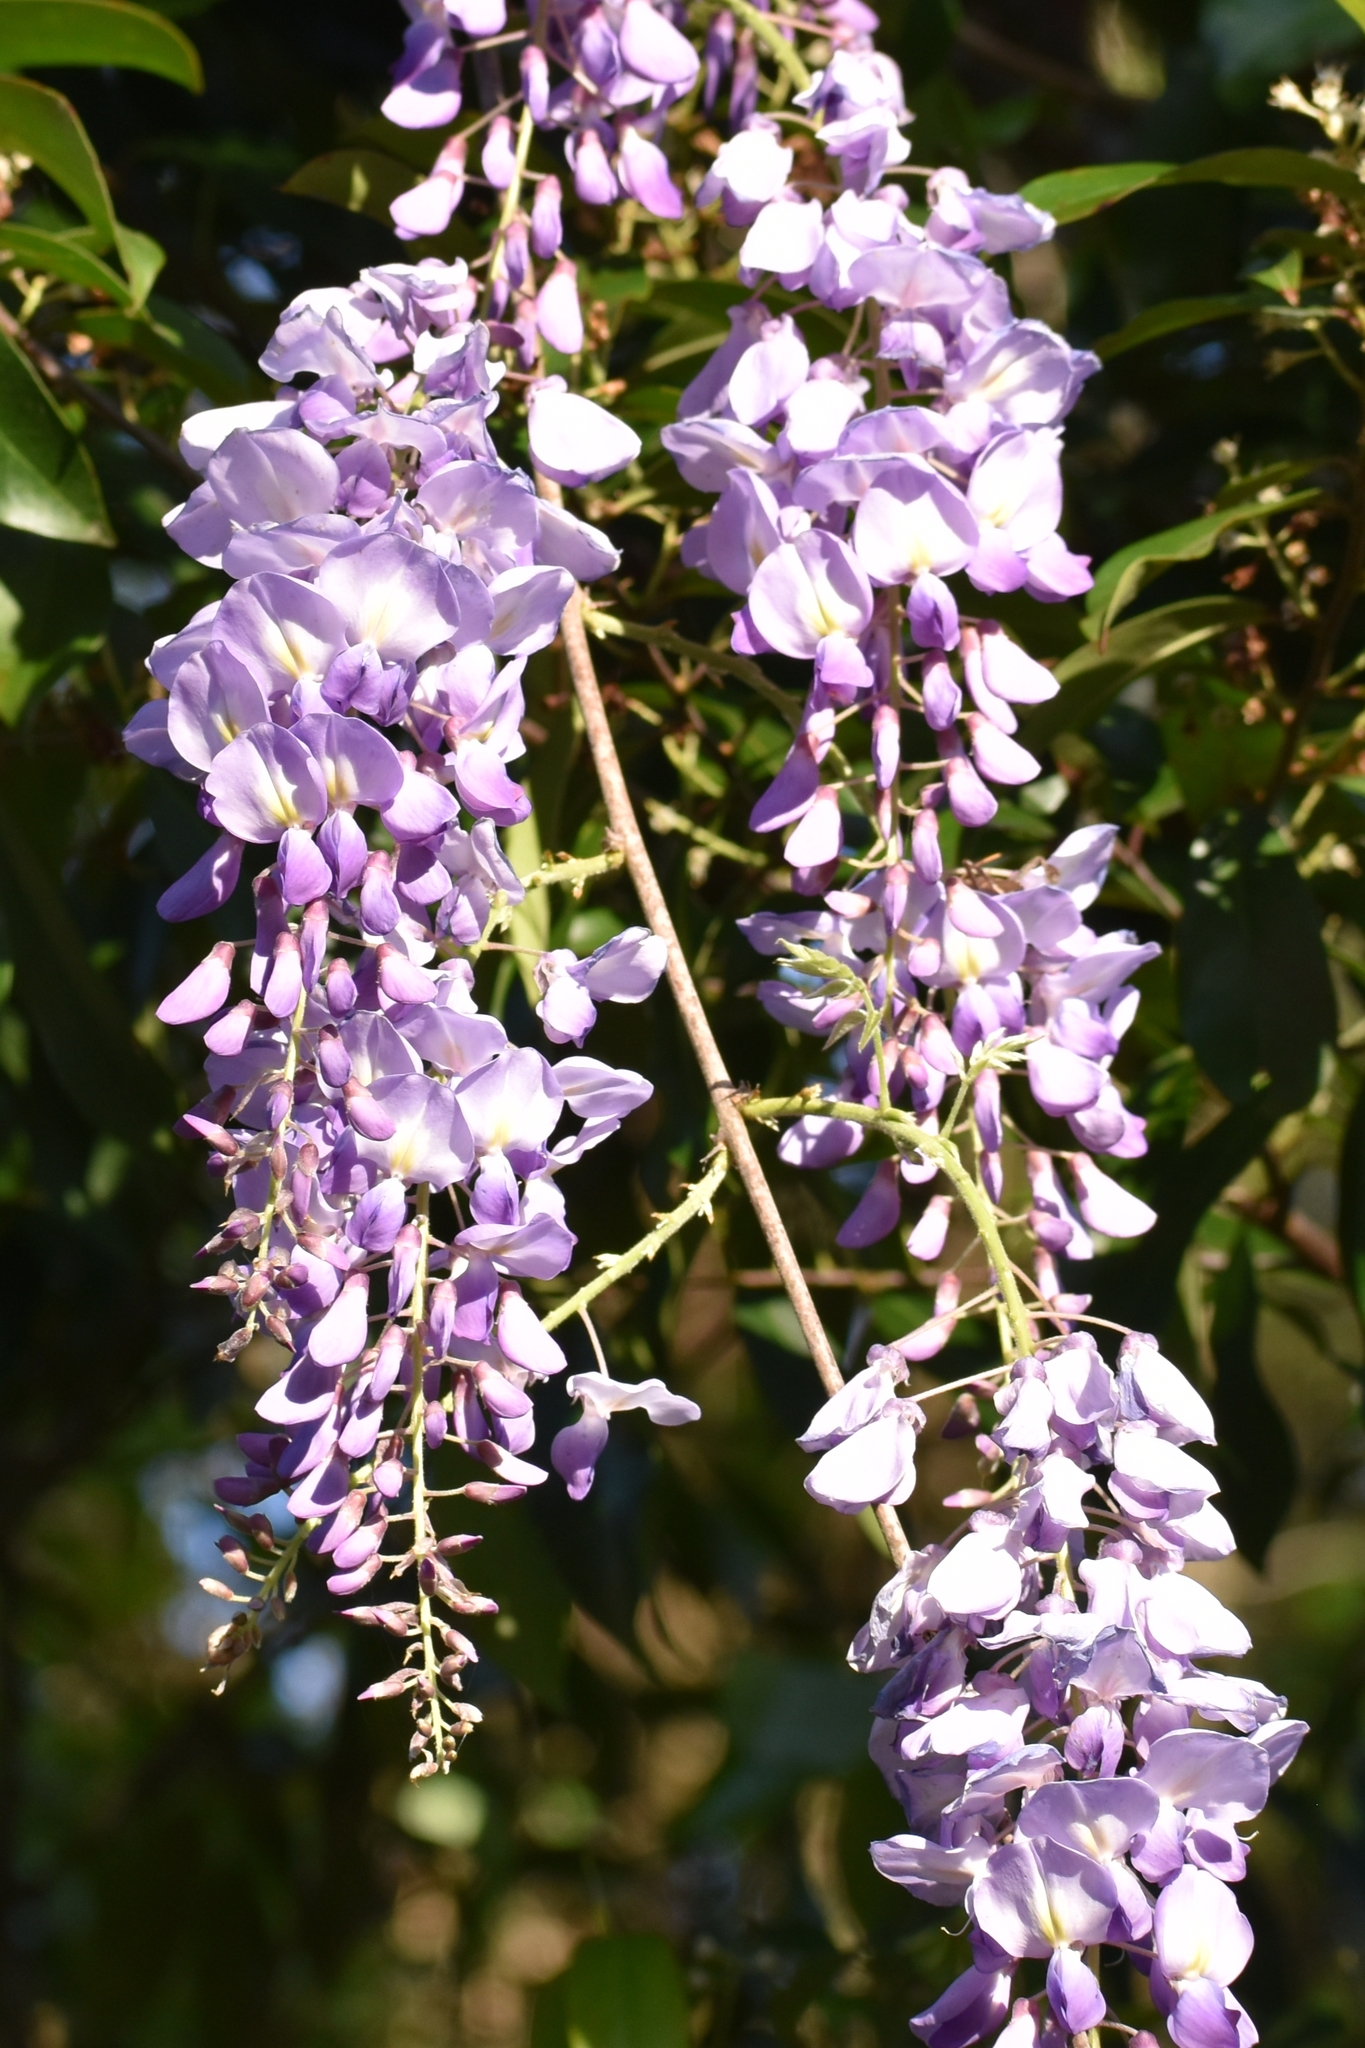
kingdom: Plantae
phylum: Tracheophyta
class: Magnoliopsida
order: Fabales
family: Fabaceae
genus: Wisteria
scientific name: Wisteria sinensis
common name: Chinese wisteria
